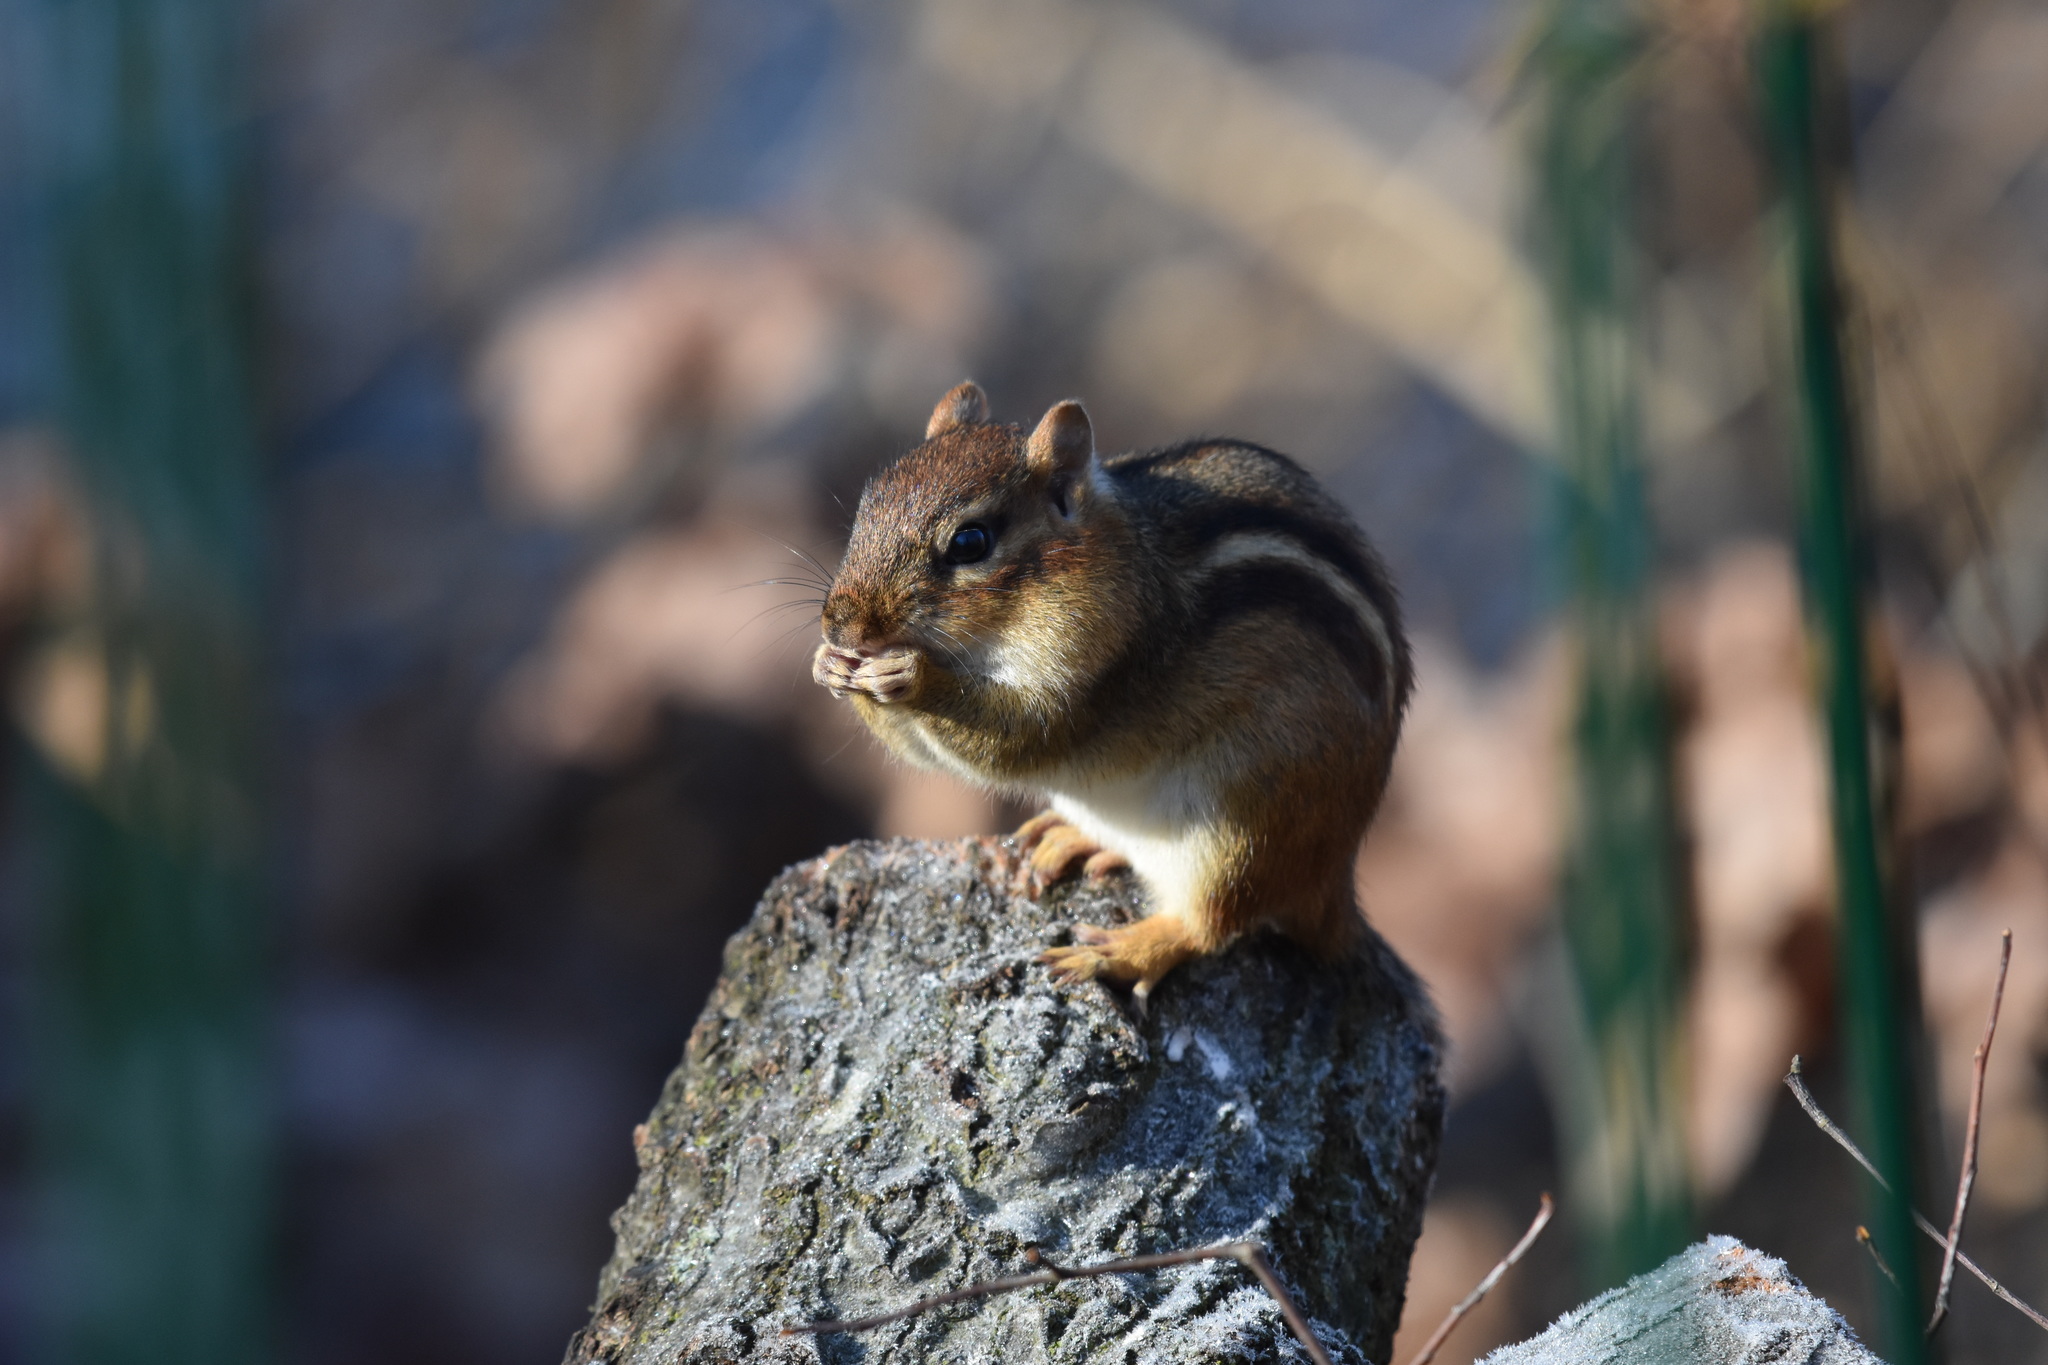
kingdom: Animalia
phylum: Chordata
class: Mammalia
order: Rodentia
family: Sciuridae
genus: Tamias
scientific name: Tamias striatus
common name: Eastern chipmunk
